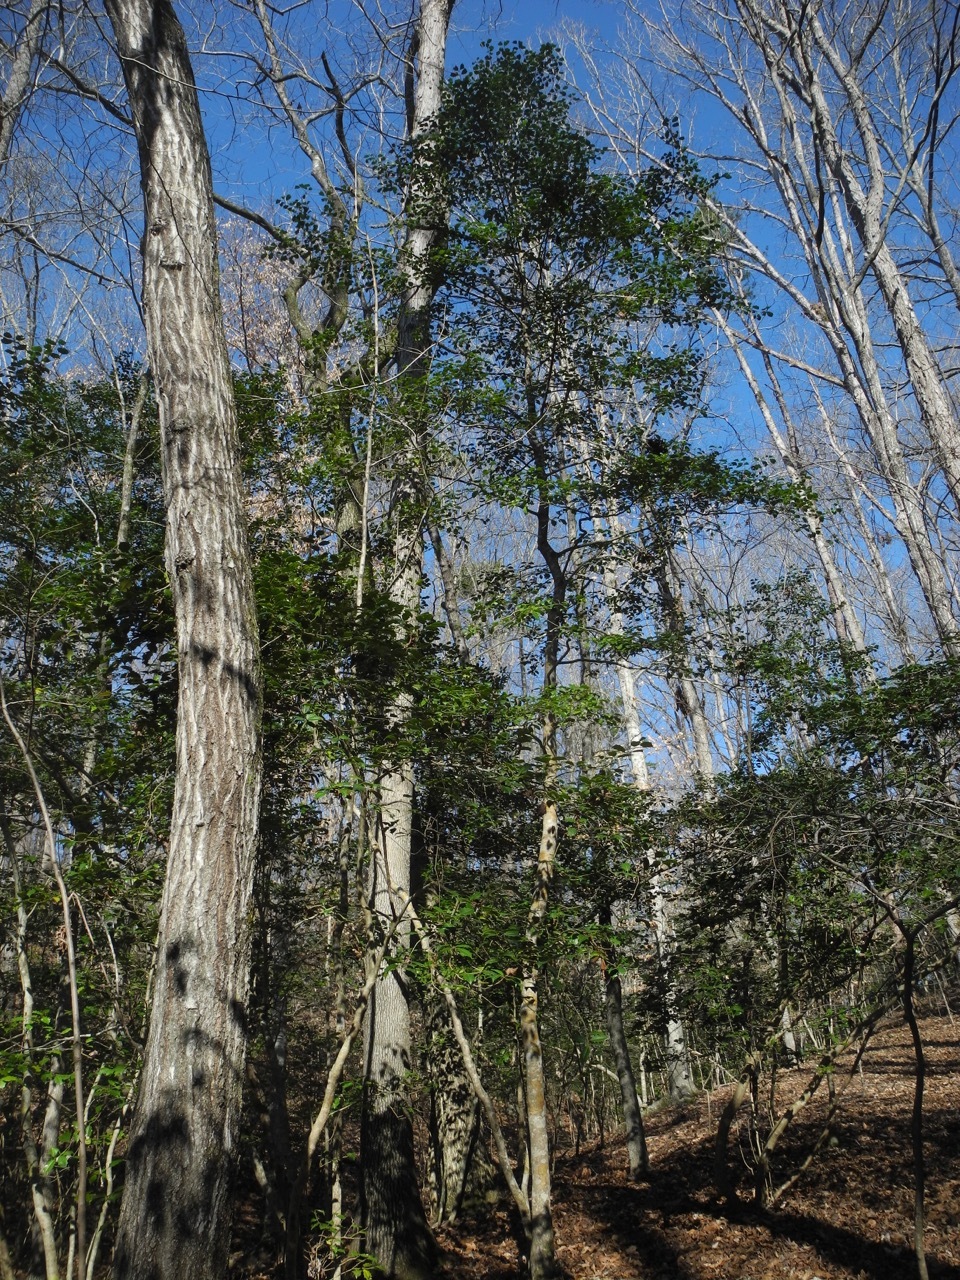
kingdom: Plantae
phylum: Tracheophyta
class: Magnoliopsida
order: Aquifoliales
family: Aquifoliaceae
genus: Ilex
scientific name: Ilex opaca
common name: American holly
